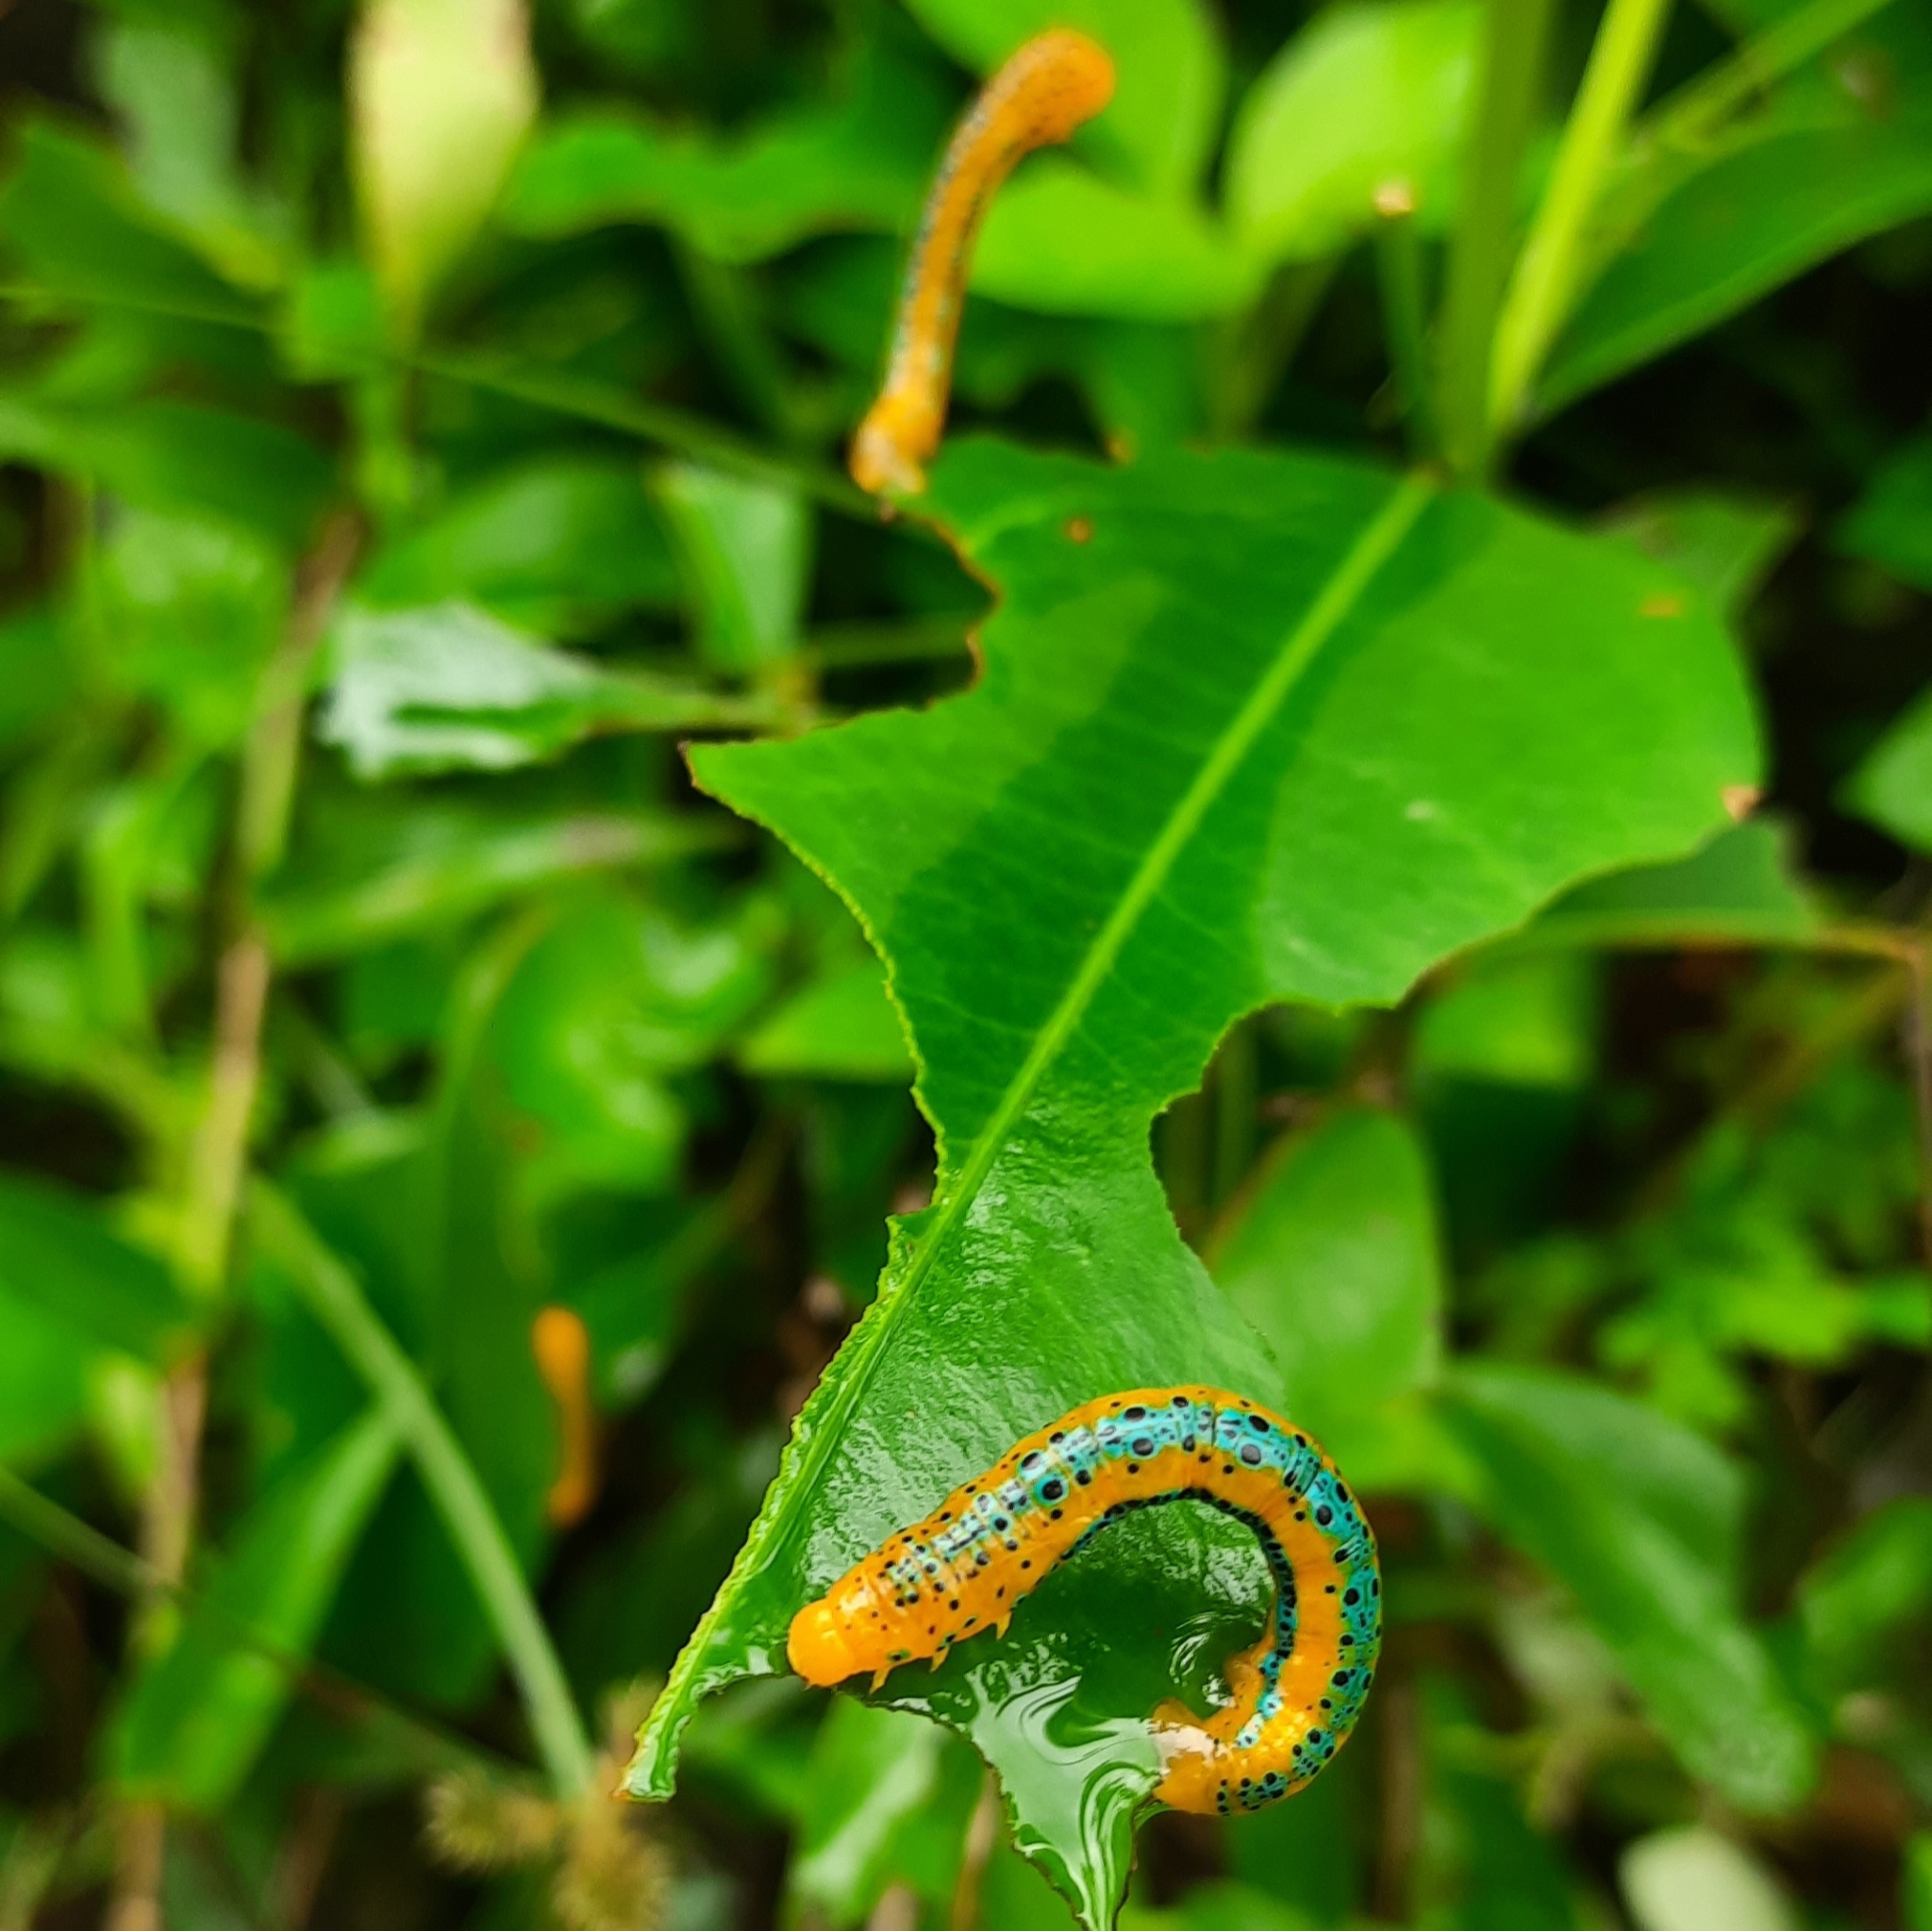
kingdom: Animalia
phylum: Arthropoda
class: Insecta
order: Lepidoptera
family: Geometridae
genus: Dysphania
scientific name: Dysphania percota
